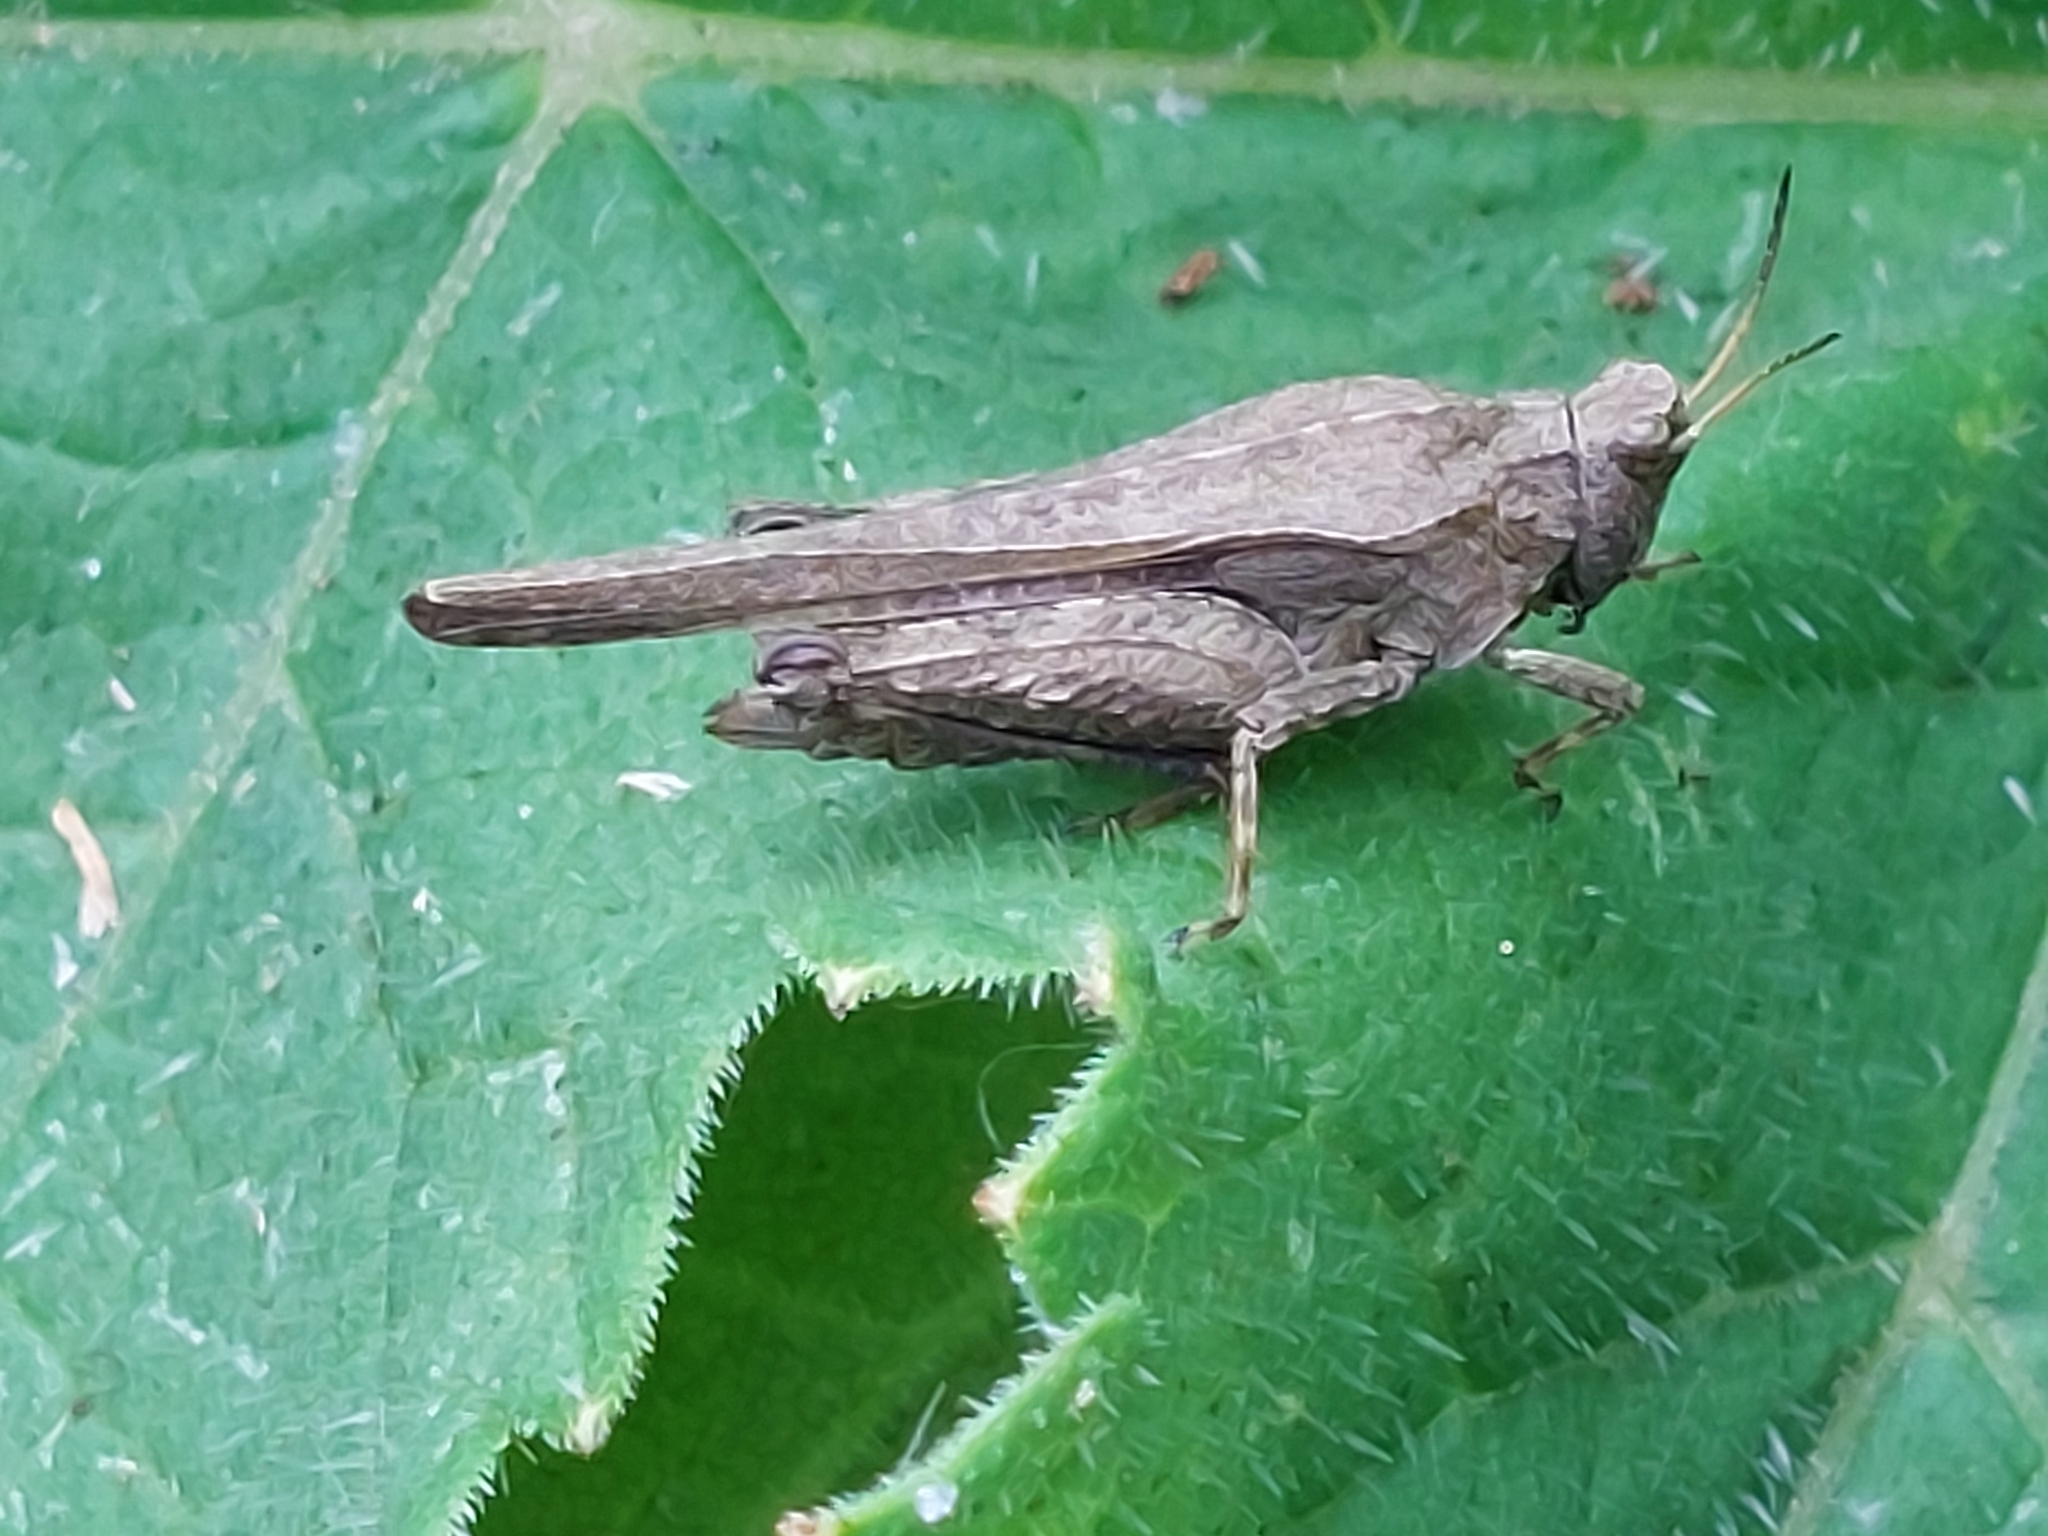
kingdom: Animalia
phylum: Arthropoda
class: Insecta
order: Orthoptera
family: Tetrigidae
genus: Tetrix
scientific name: Tetrix subulata
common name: Slender ground-hopper
